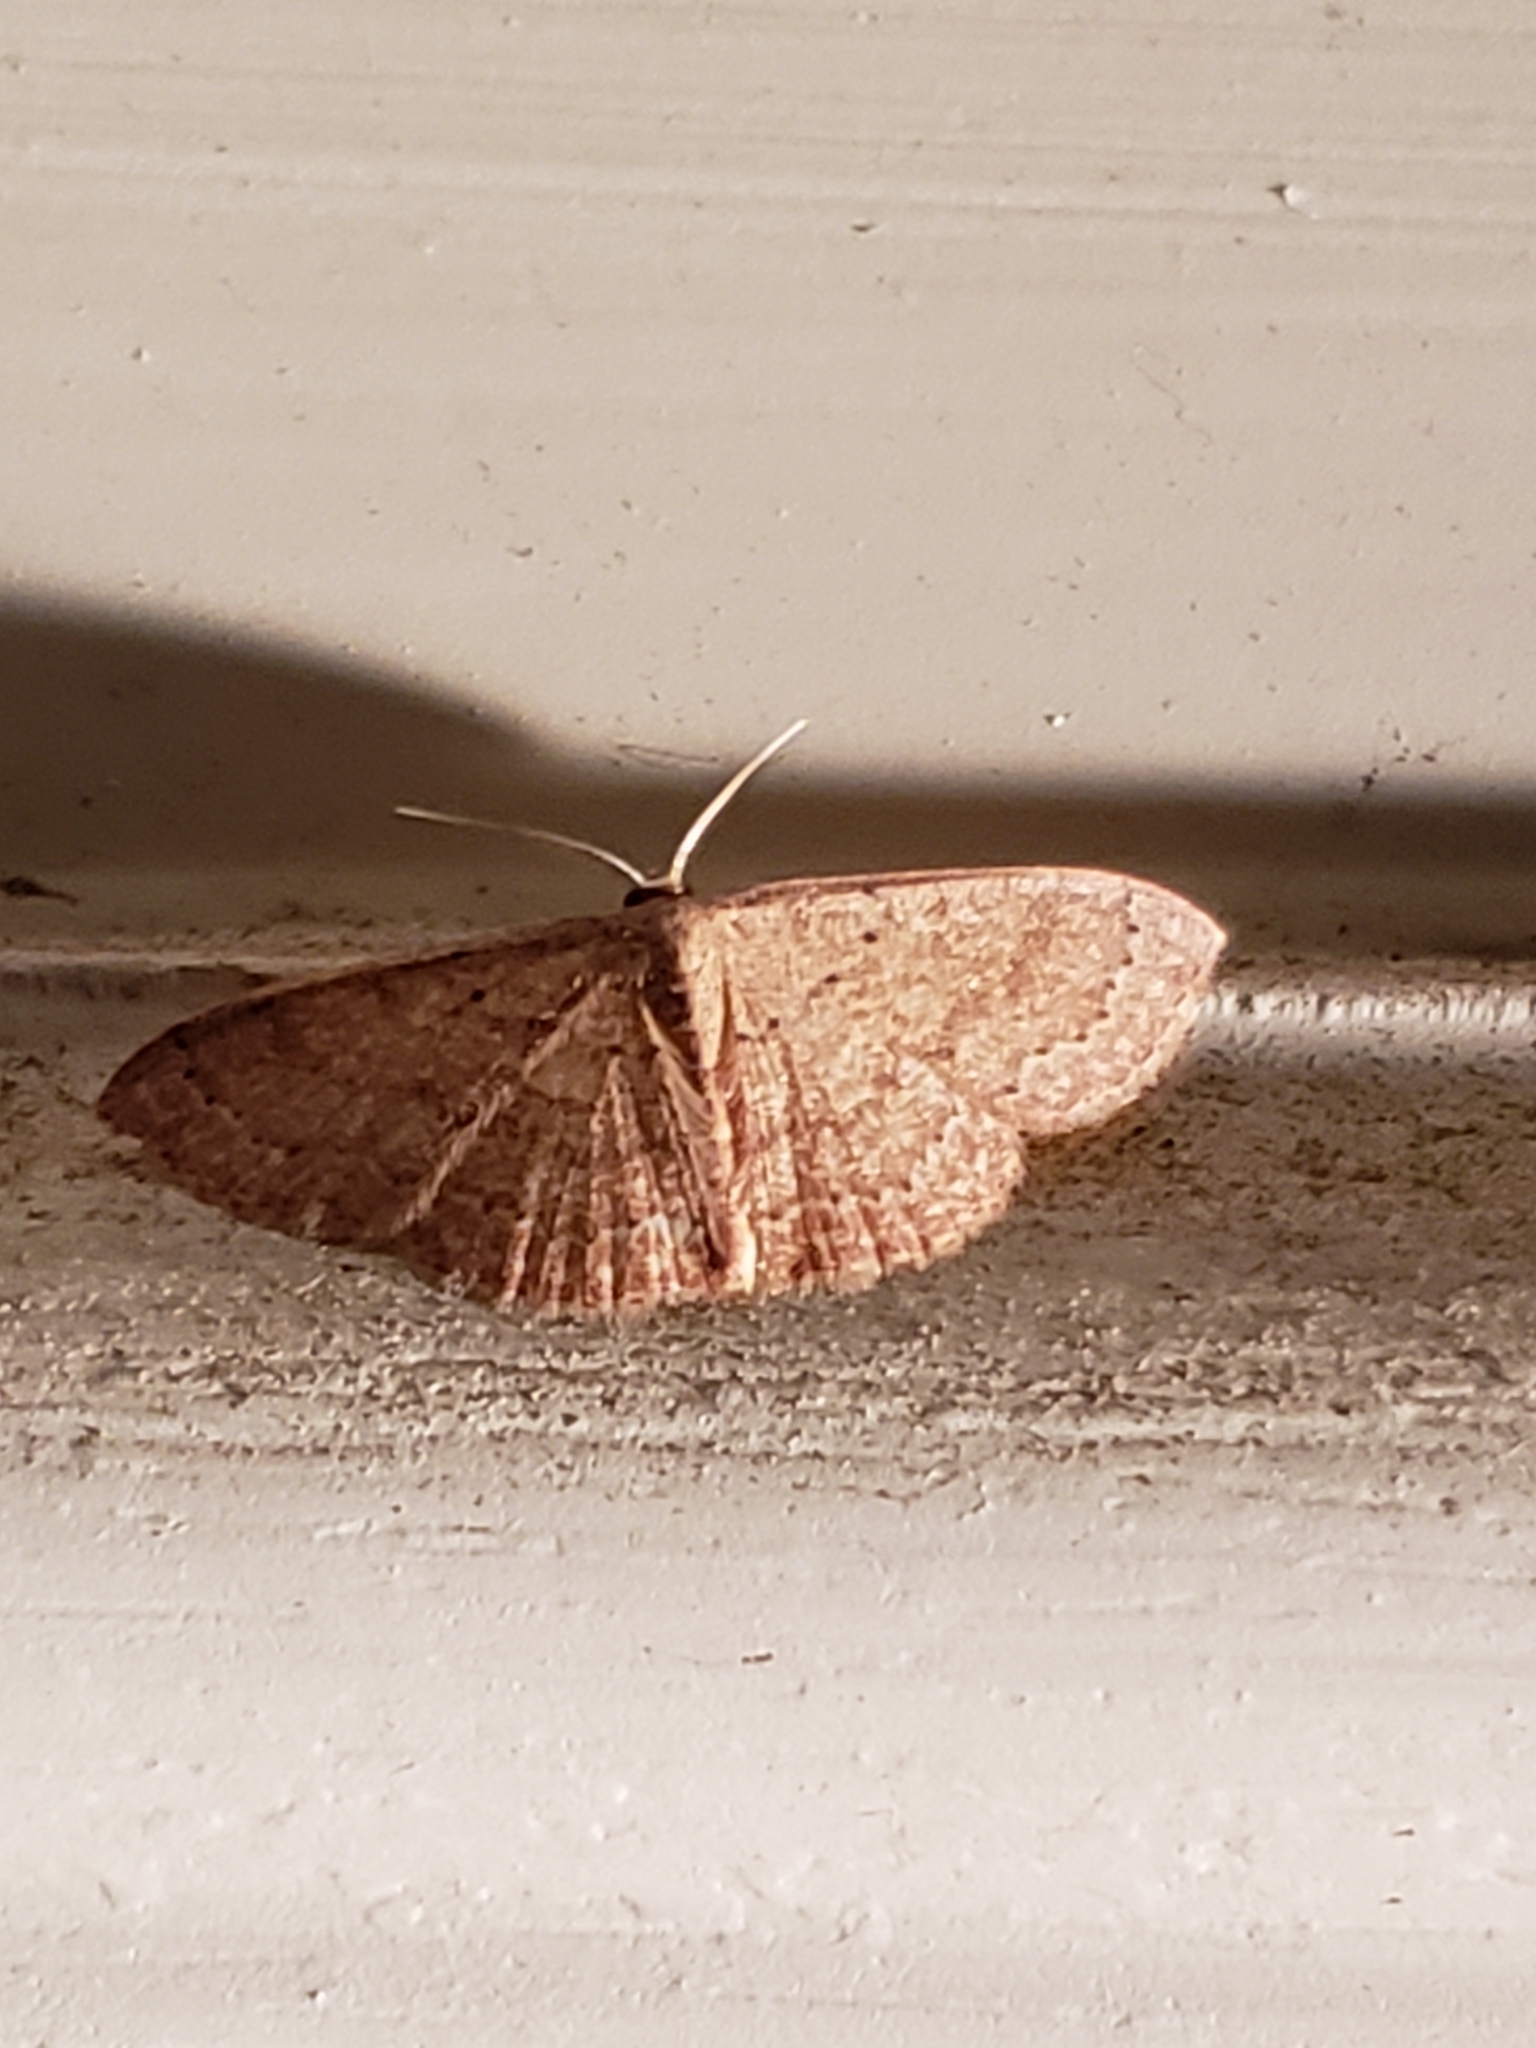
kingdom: Animalia
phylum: Arthropoda
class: Insecta
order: Lepidoptera
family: Geometridae
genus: Pleuroprucha
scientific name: Pleuroprucha insulsaria
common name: Common tan wave
